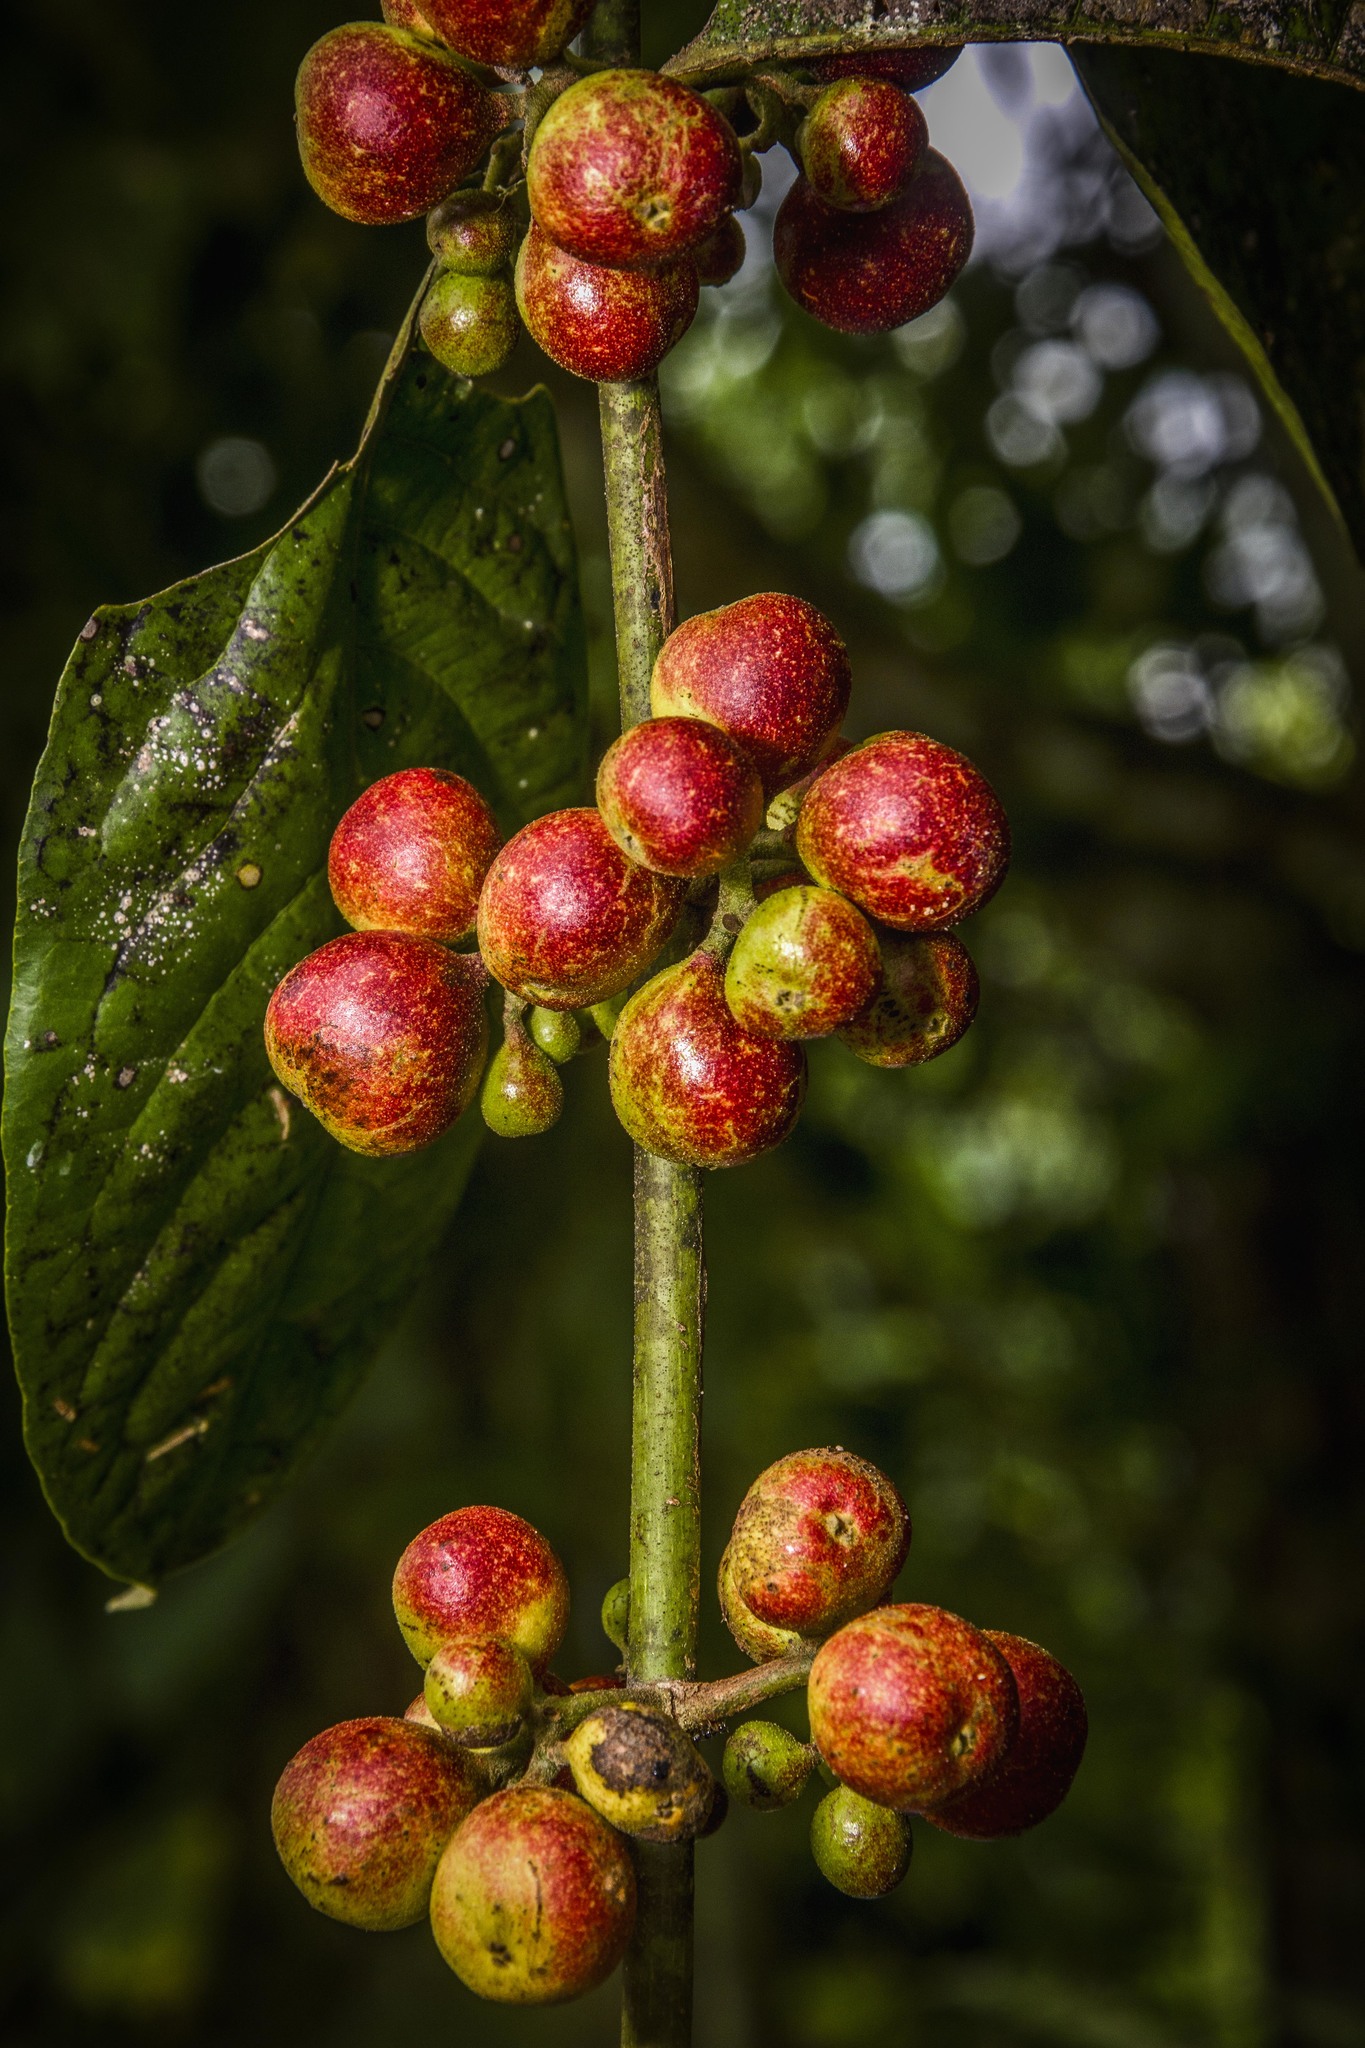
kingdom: Plantae
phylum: Tracheophyta
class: Magnoliopsida
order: Laurales
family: Siparunaceae
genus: Siparuna
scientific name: Siparuna guianensis
